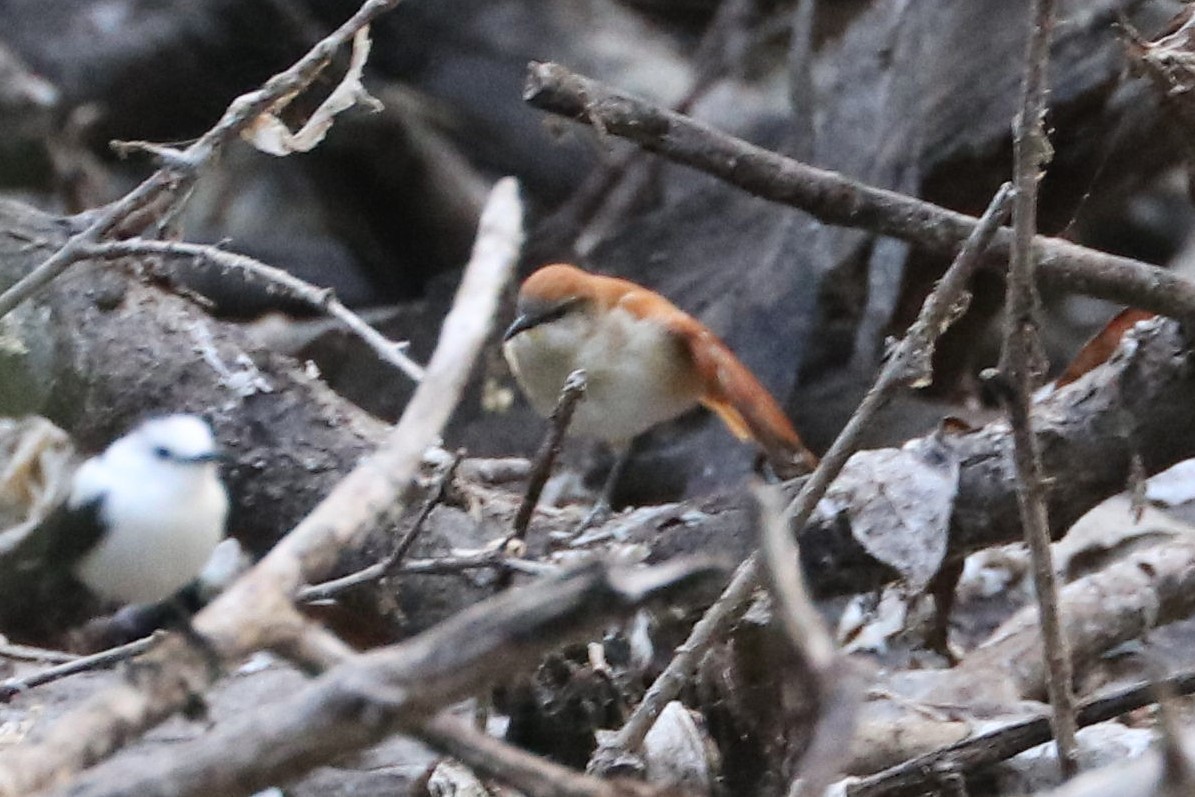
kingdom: Animalia
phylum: Chordata
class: Aves
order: Passeriformes
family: Furnariidae
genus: Certhiaxis
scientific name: Certhiaxis cinnamomeus
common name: Yellow-chinned spinetail
